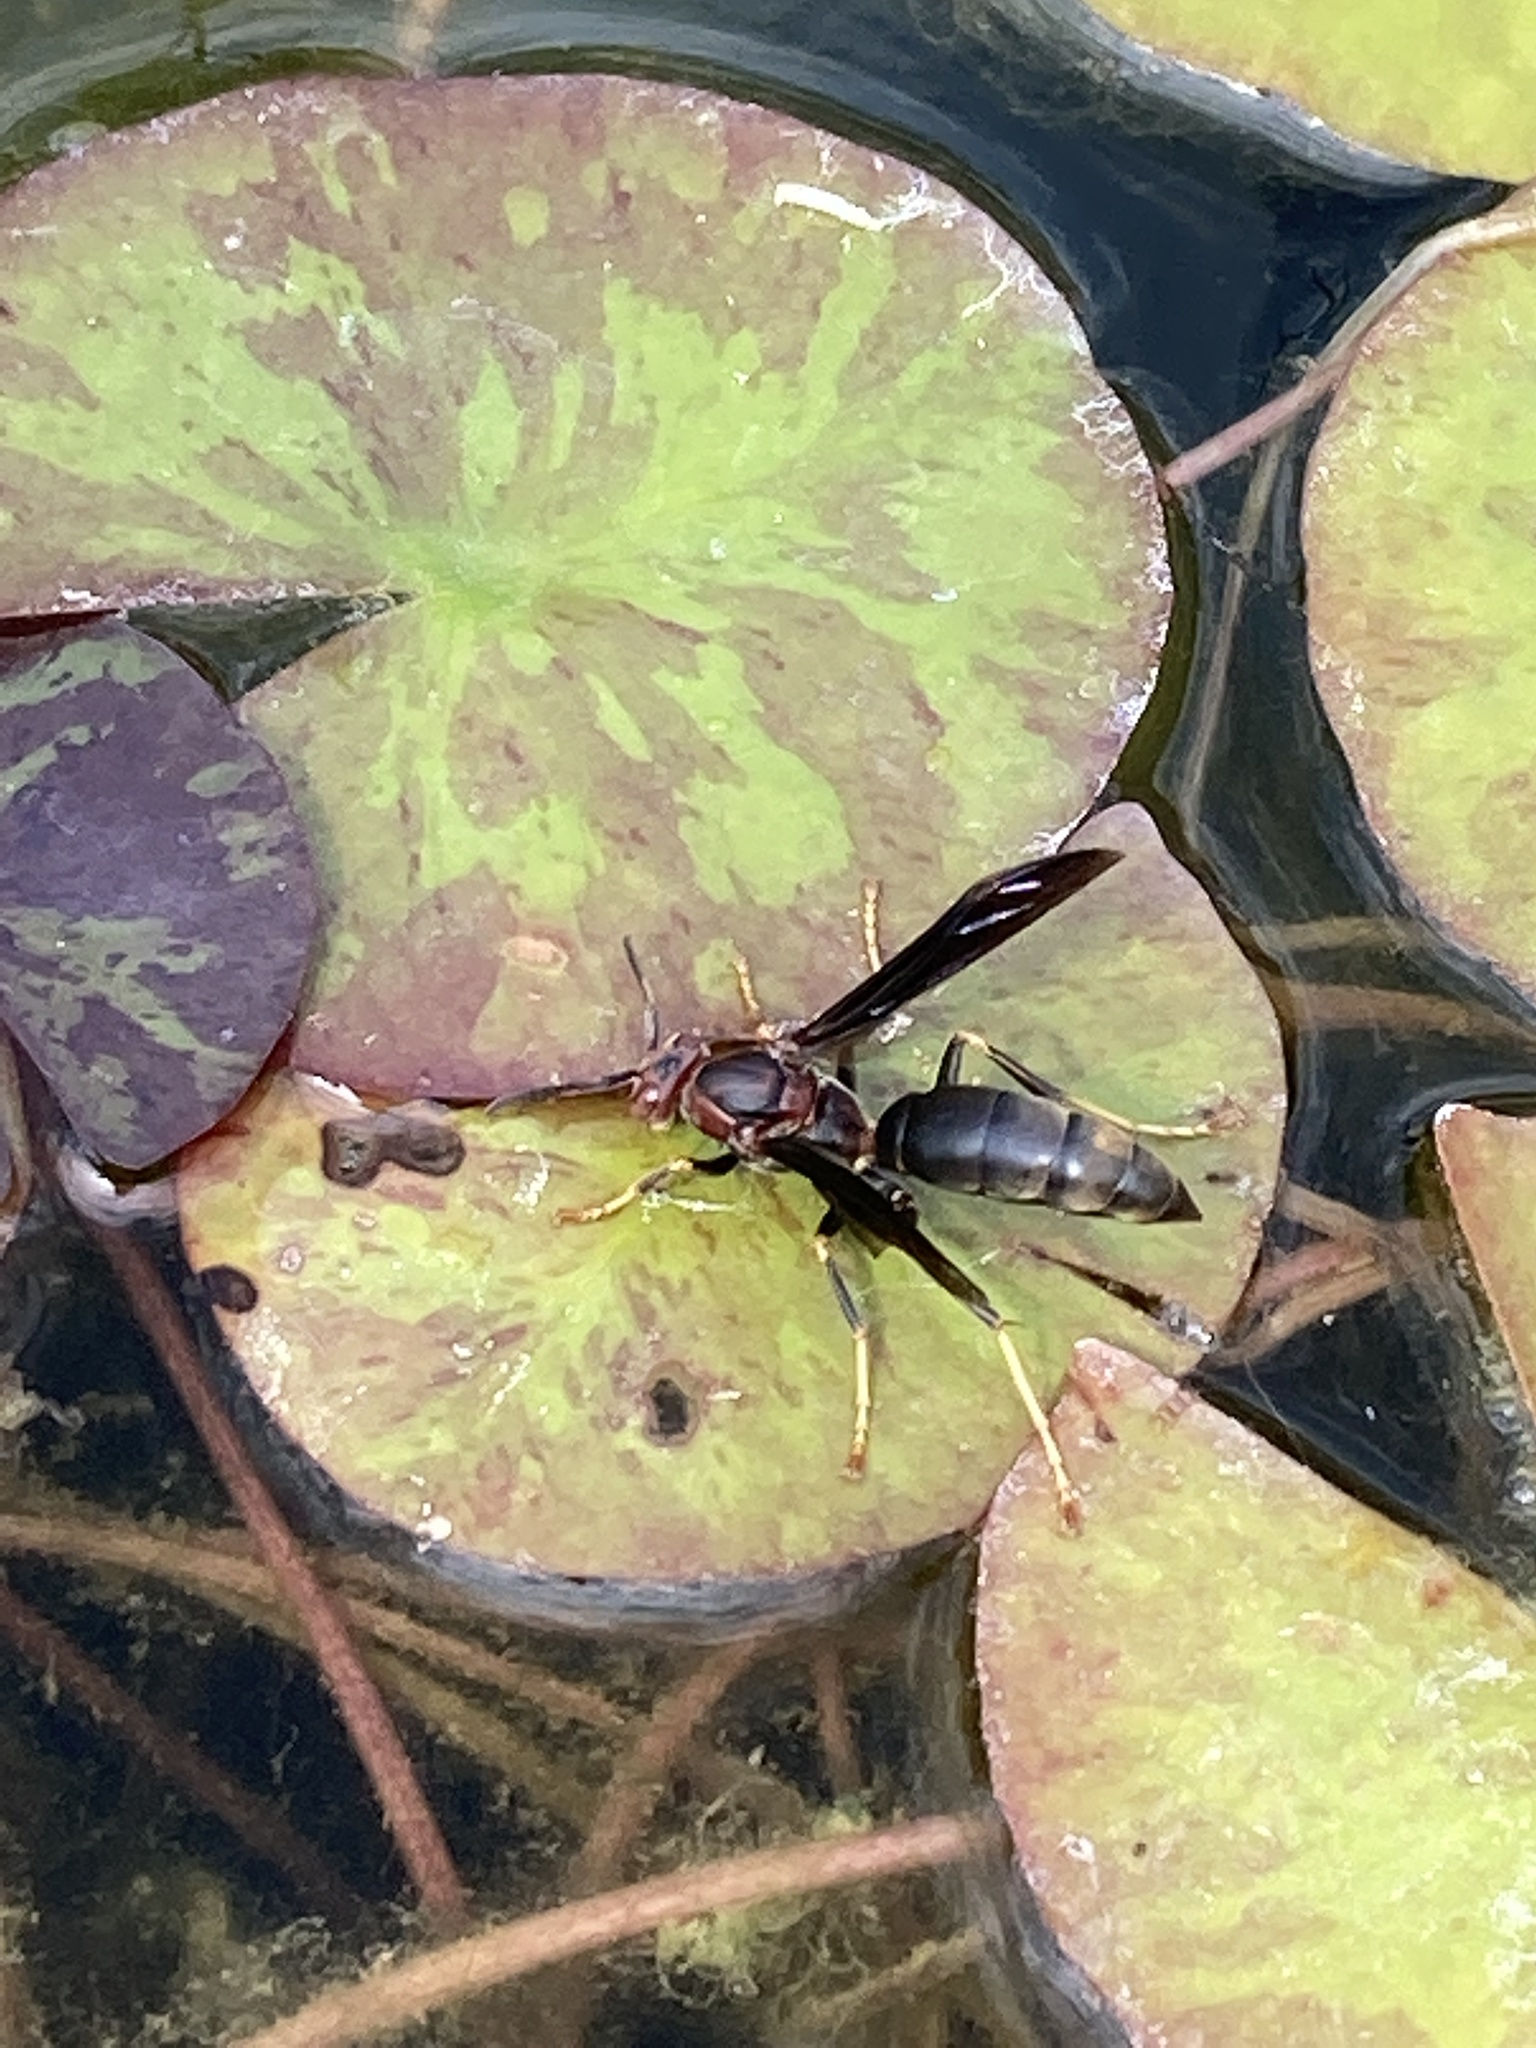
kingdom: Animalia
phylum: Arthropoda
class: Insecta
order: Hymenoptera
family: Eumenidae
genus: Polistes
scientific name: Polistes metricus
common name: Metric paper wasp
